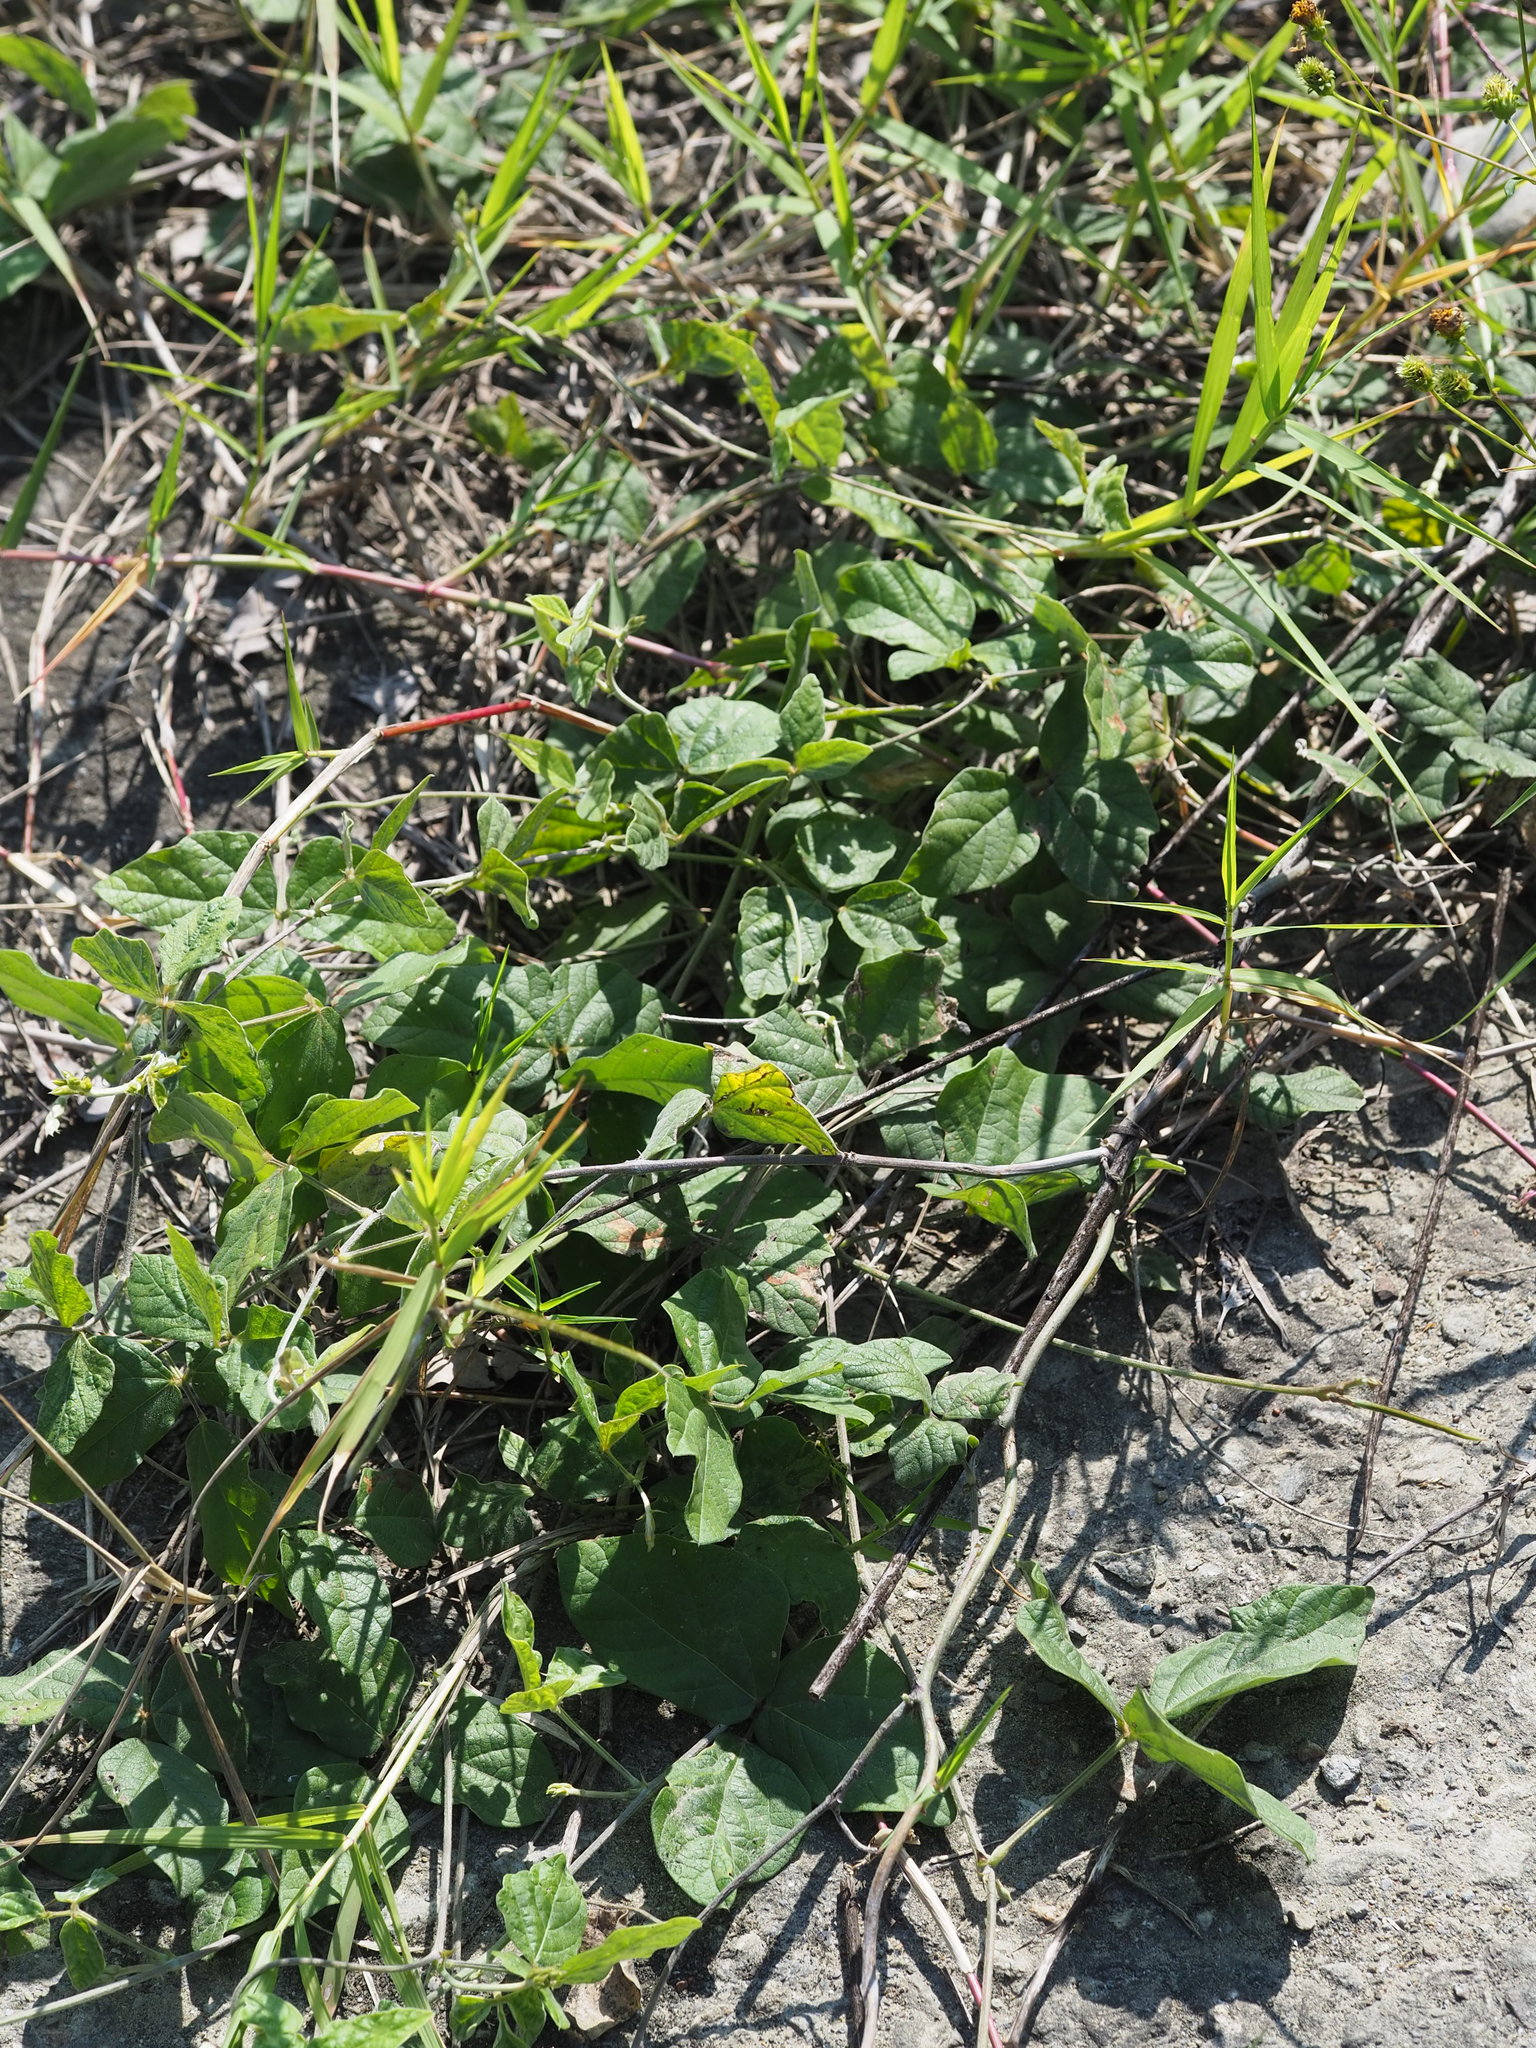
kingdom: Plantae
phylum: Tracheophyta
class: Magnoliopsida
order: Fabales
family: Fabaceae
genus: Macroptilium
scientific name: Macroptilium atropurpureum
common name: Purple bushbean
